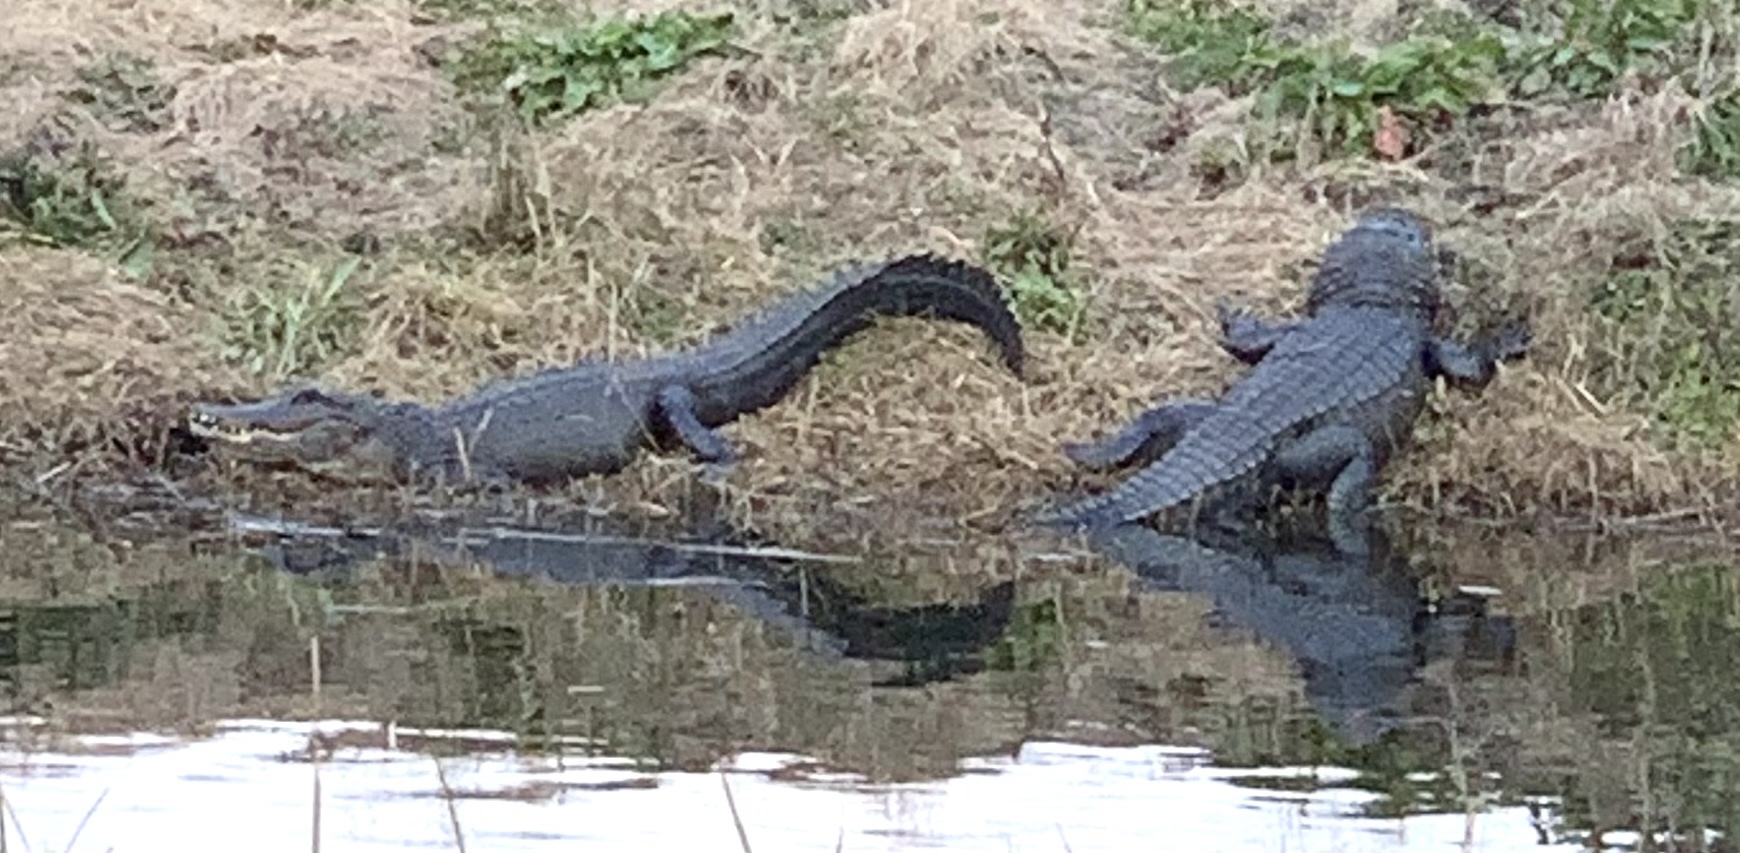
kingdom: Animalia
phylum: Chordata
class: Crocodylia
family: Alligatoridae
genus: Alligator
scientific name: Alligator mississippiensis
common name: American alligator
